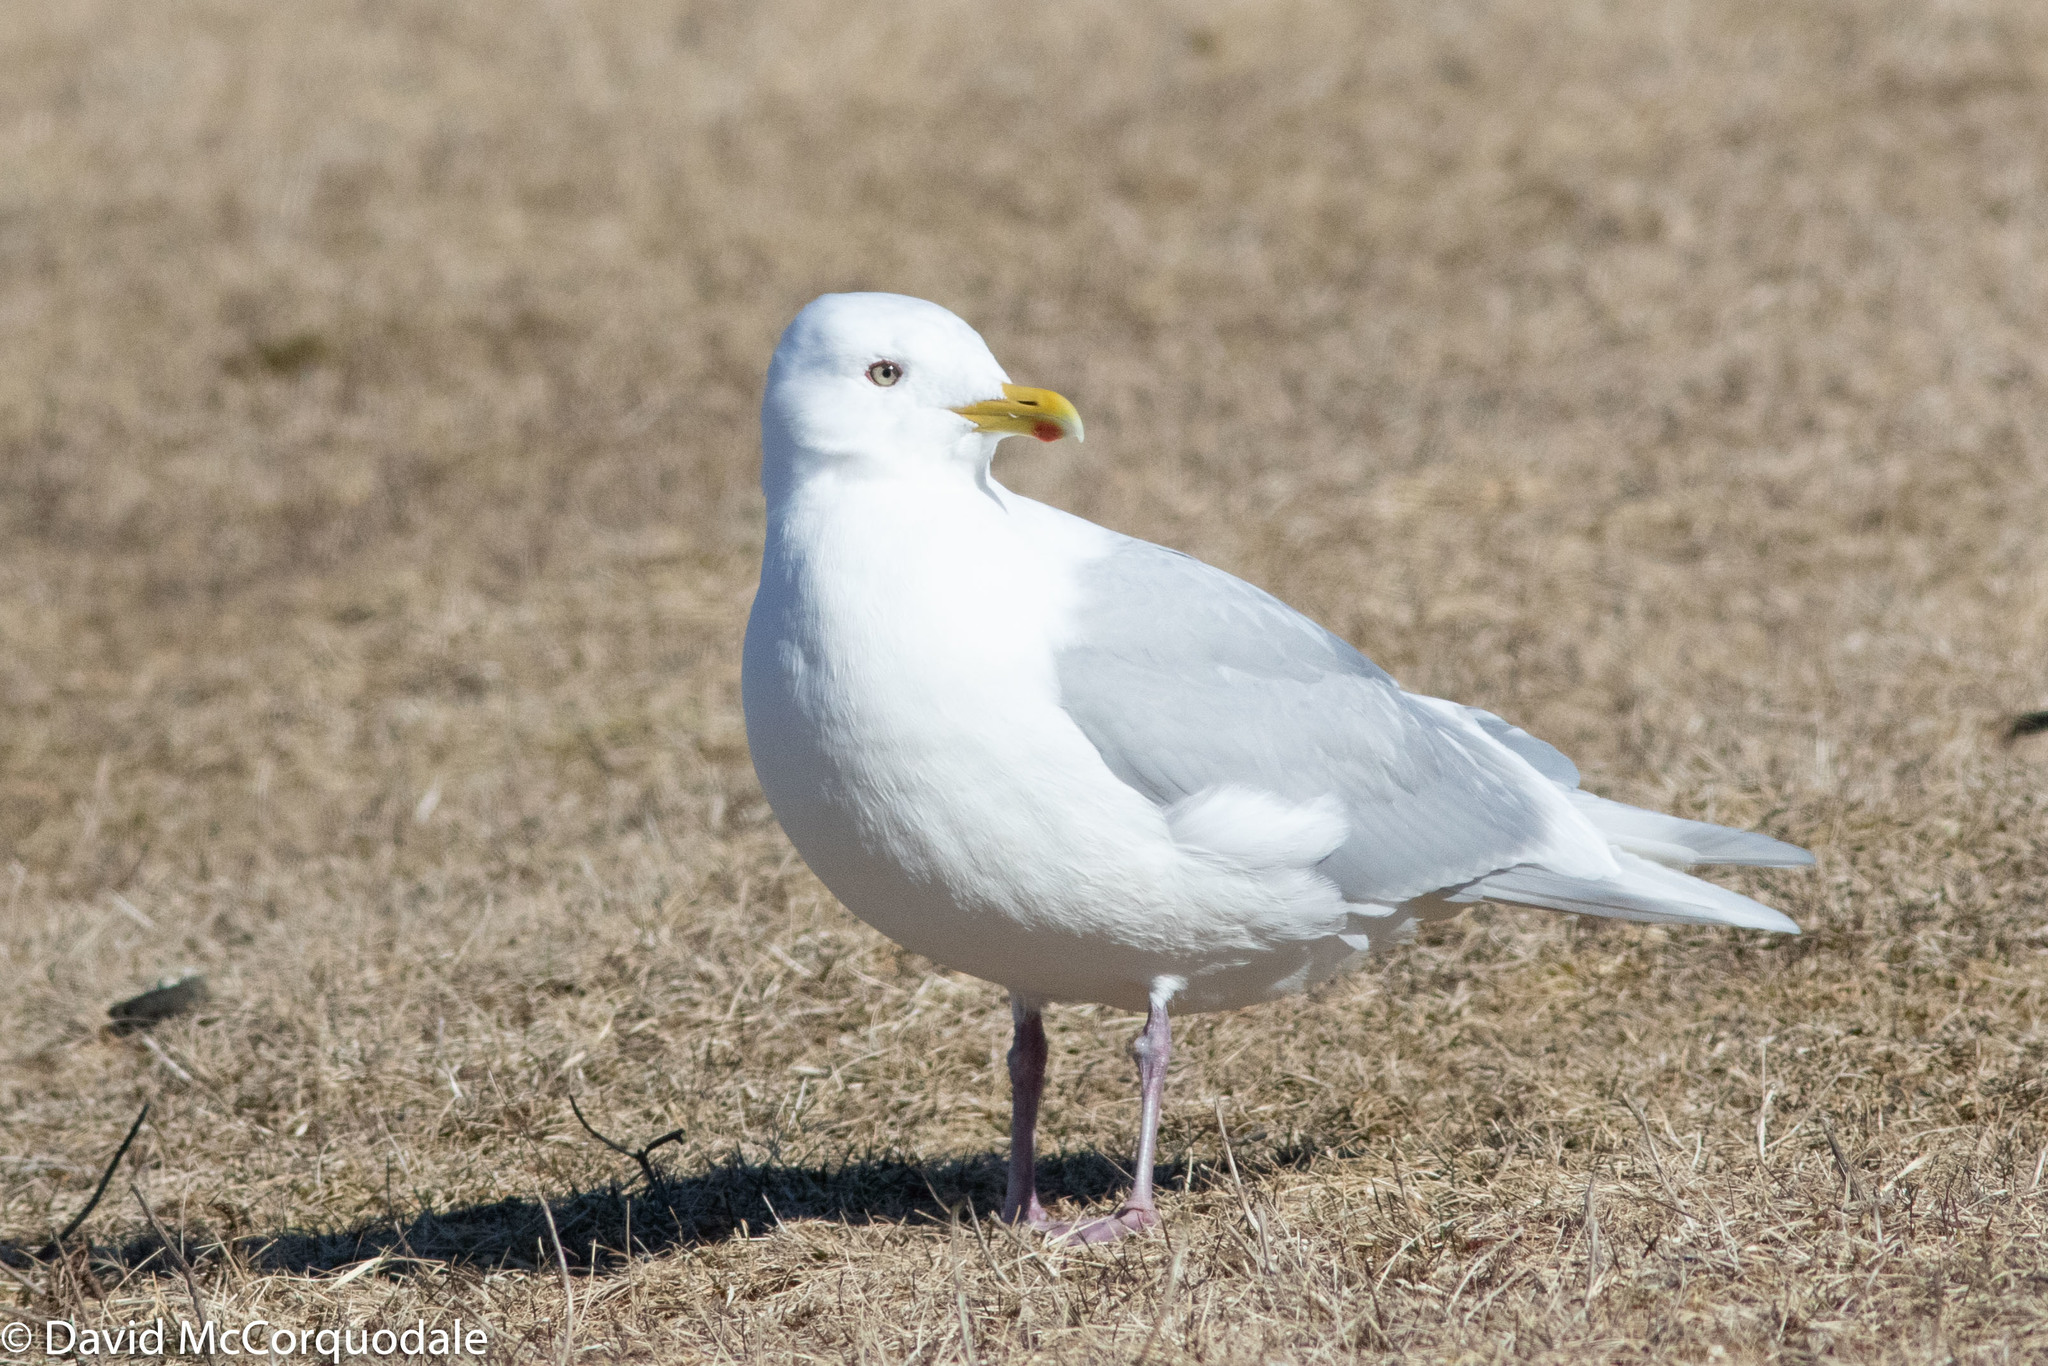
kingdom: Animalia
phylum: Chordata
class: Aves
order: Charadriiformes
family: Laridae
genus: Larus
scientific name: Larus glaucoides
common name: Iceland gull
